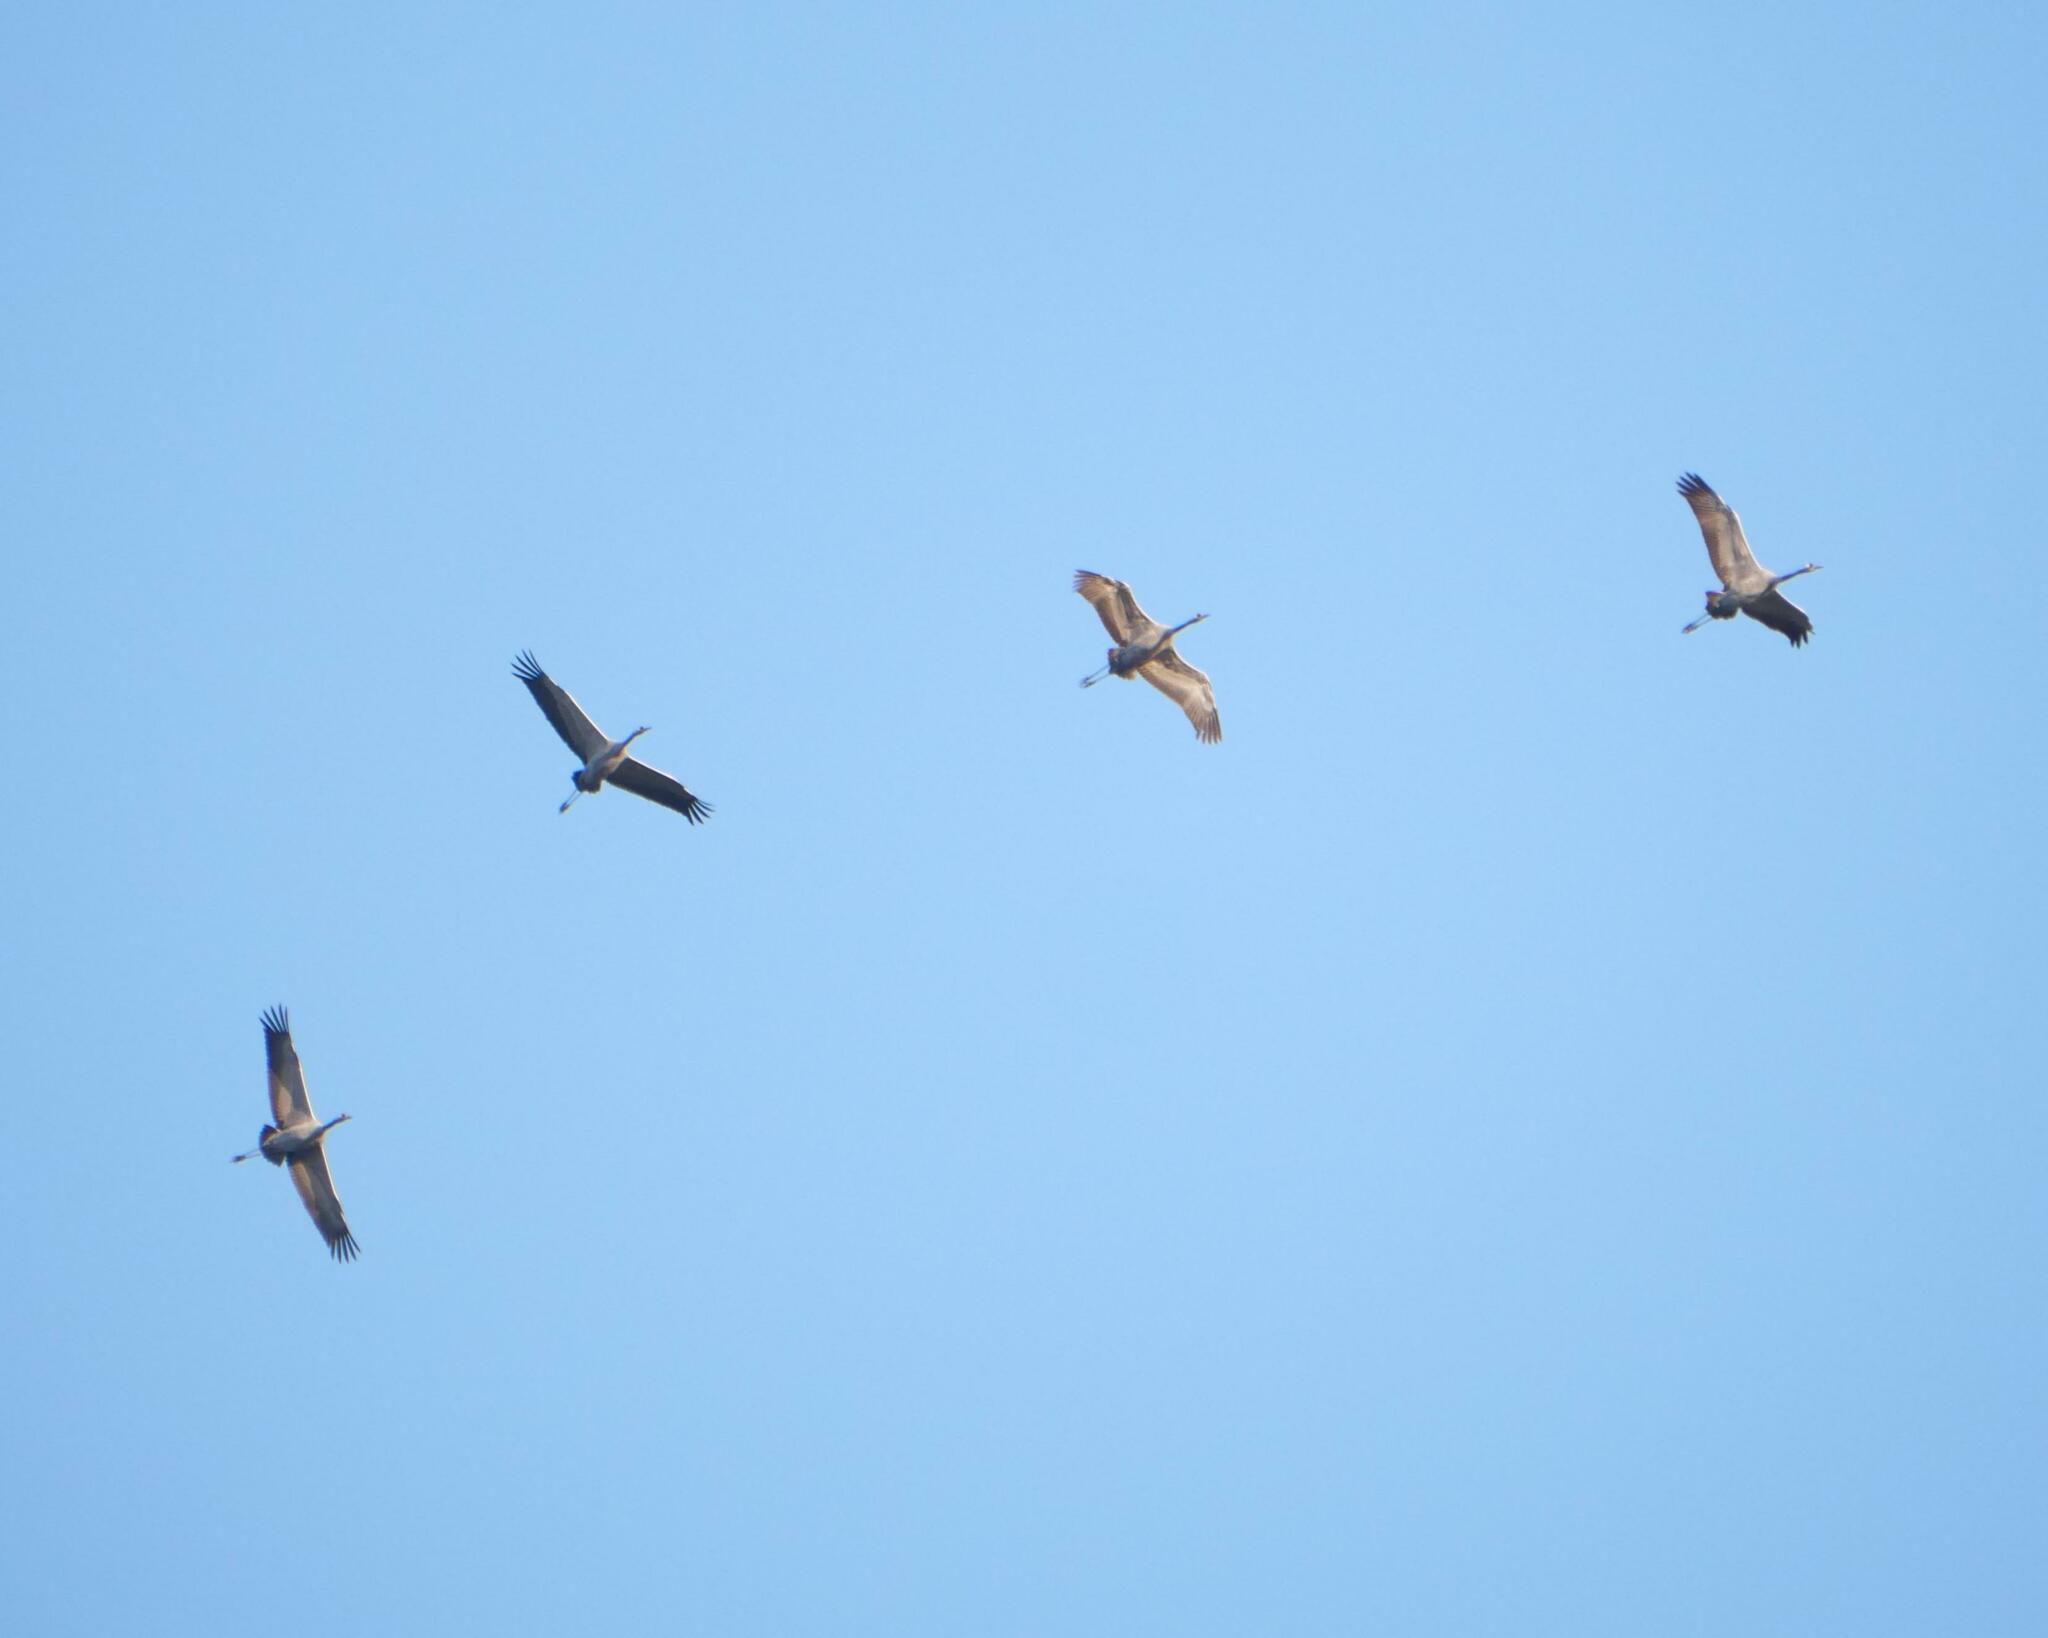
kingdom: Animalia
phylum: Chordata
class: Aves
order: Gruiformes
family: Gruidae
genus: Grus
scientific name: Grus grus
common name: Common crane
